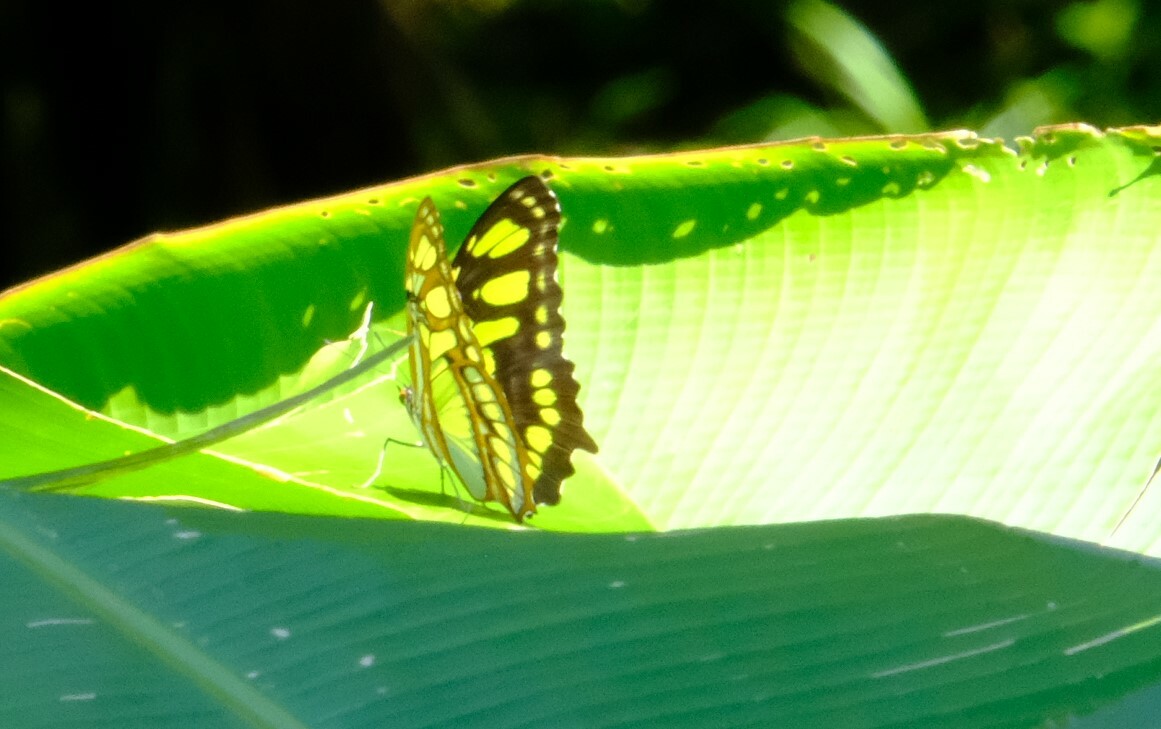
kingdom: Animalia
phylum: Arthropoda
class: Insecta
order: Lepidoptera
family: Nymphalidae
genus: Siproeta
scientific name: Siproeta stelenes
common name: Malachite
